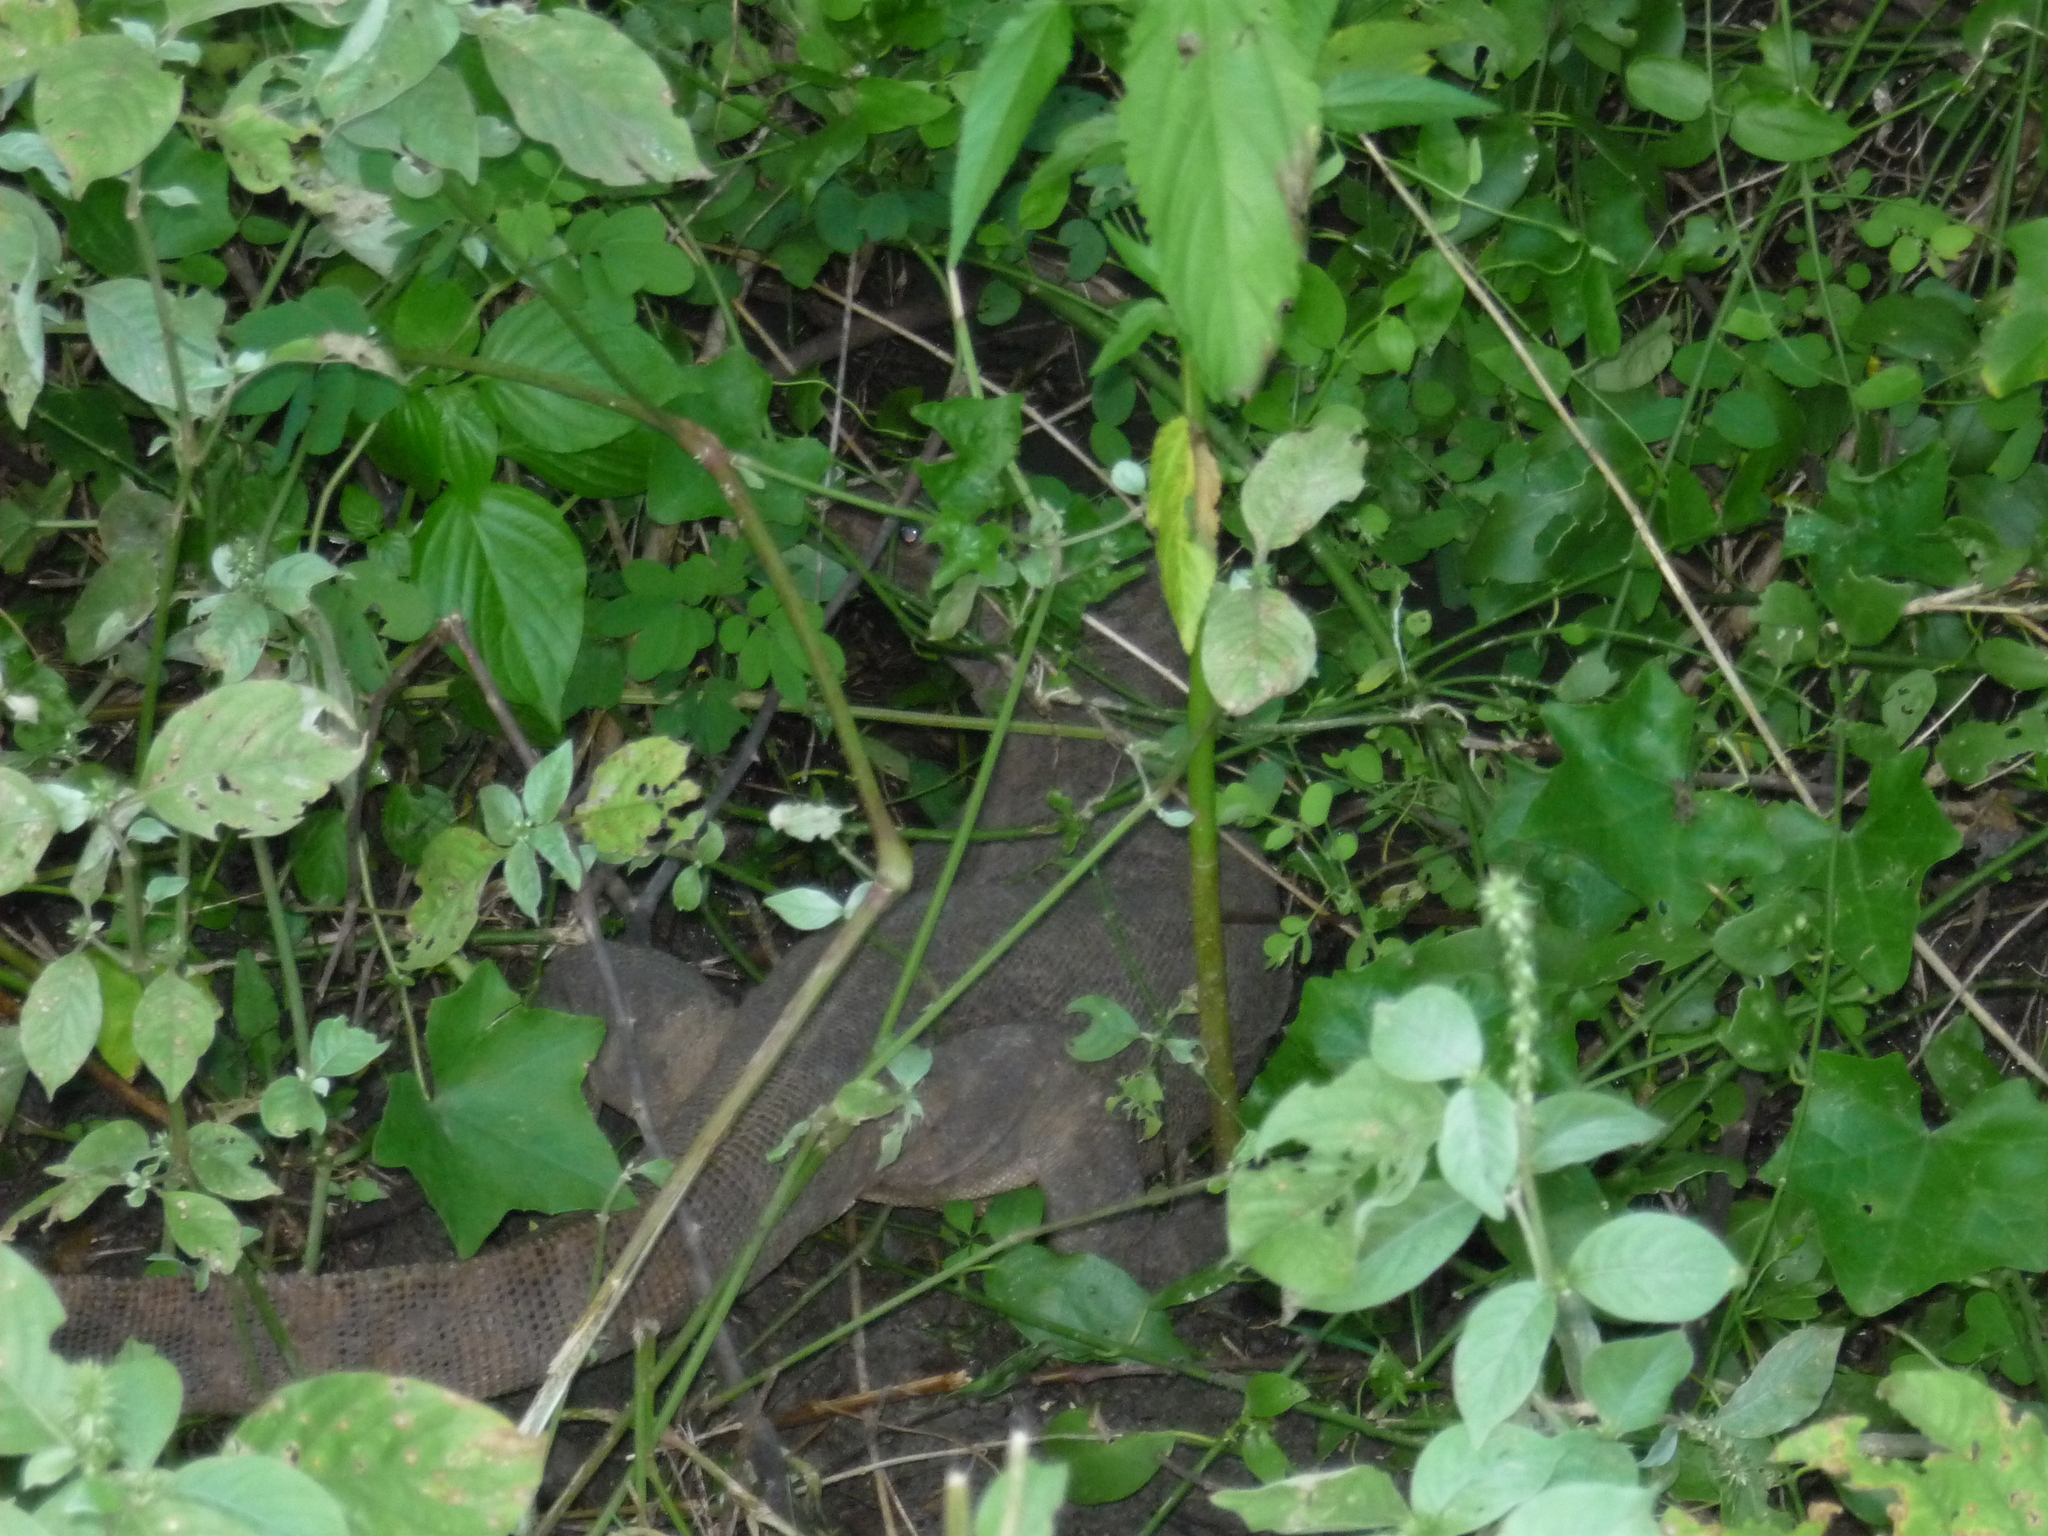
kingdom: Animalia
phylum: Chordata
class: Squamata
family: Varanidae
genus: Varanus
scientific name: Varanus bengalensis
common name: Bengal monitor
